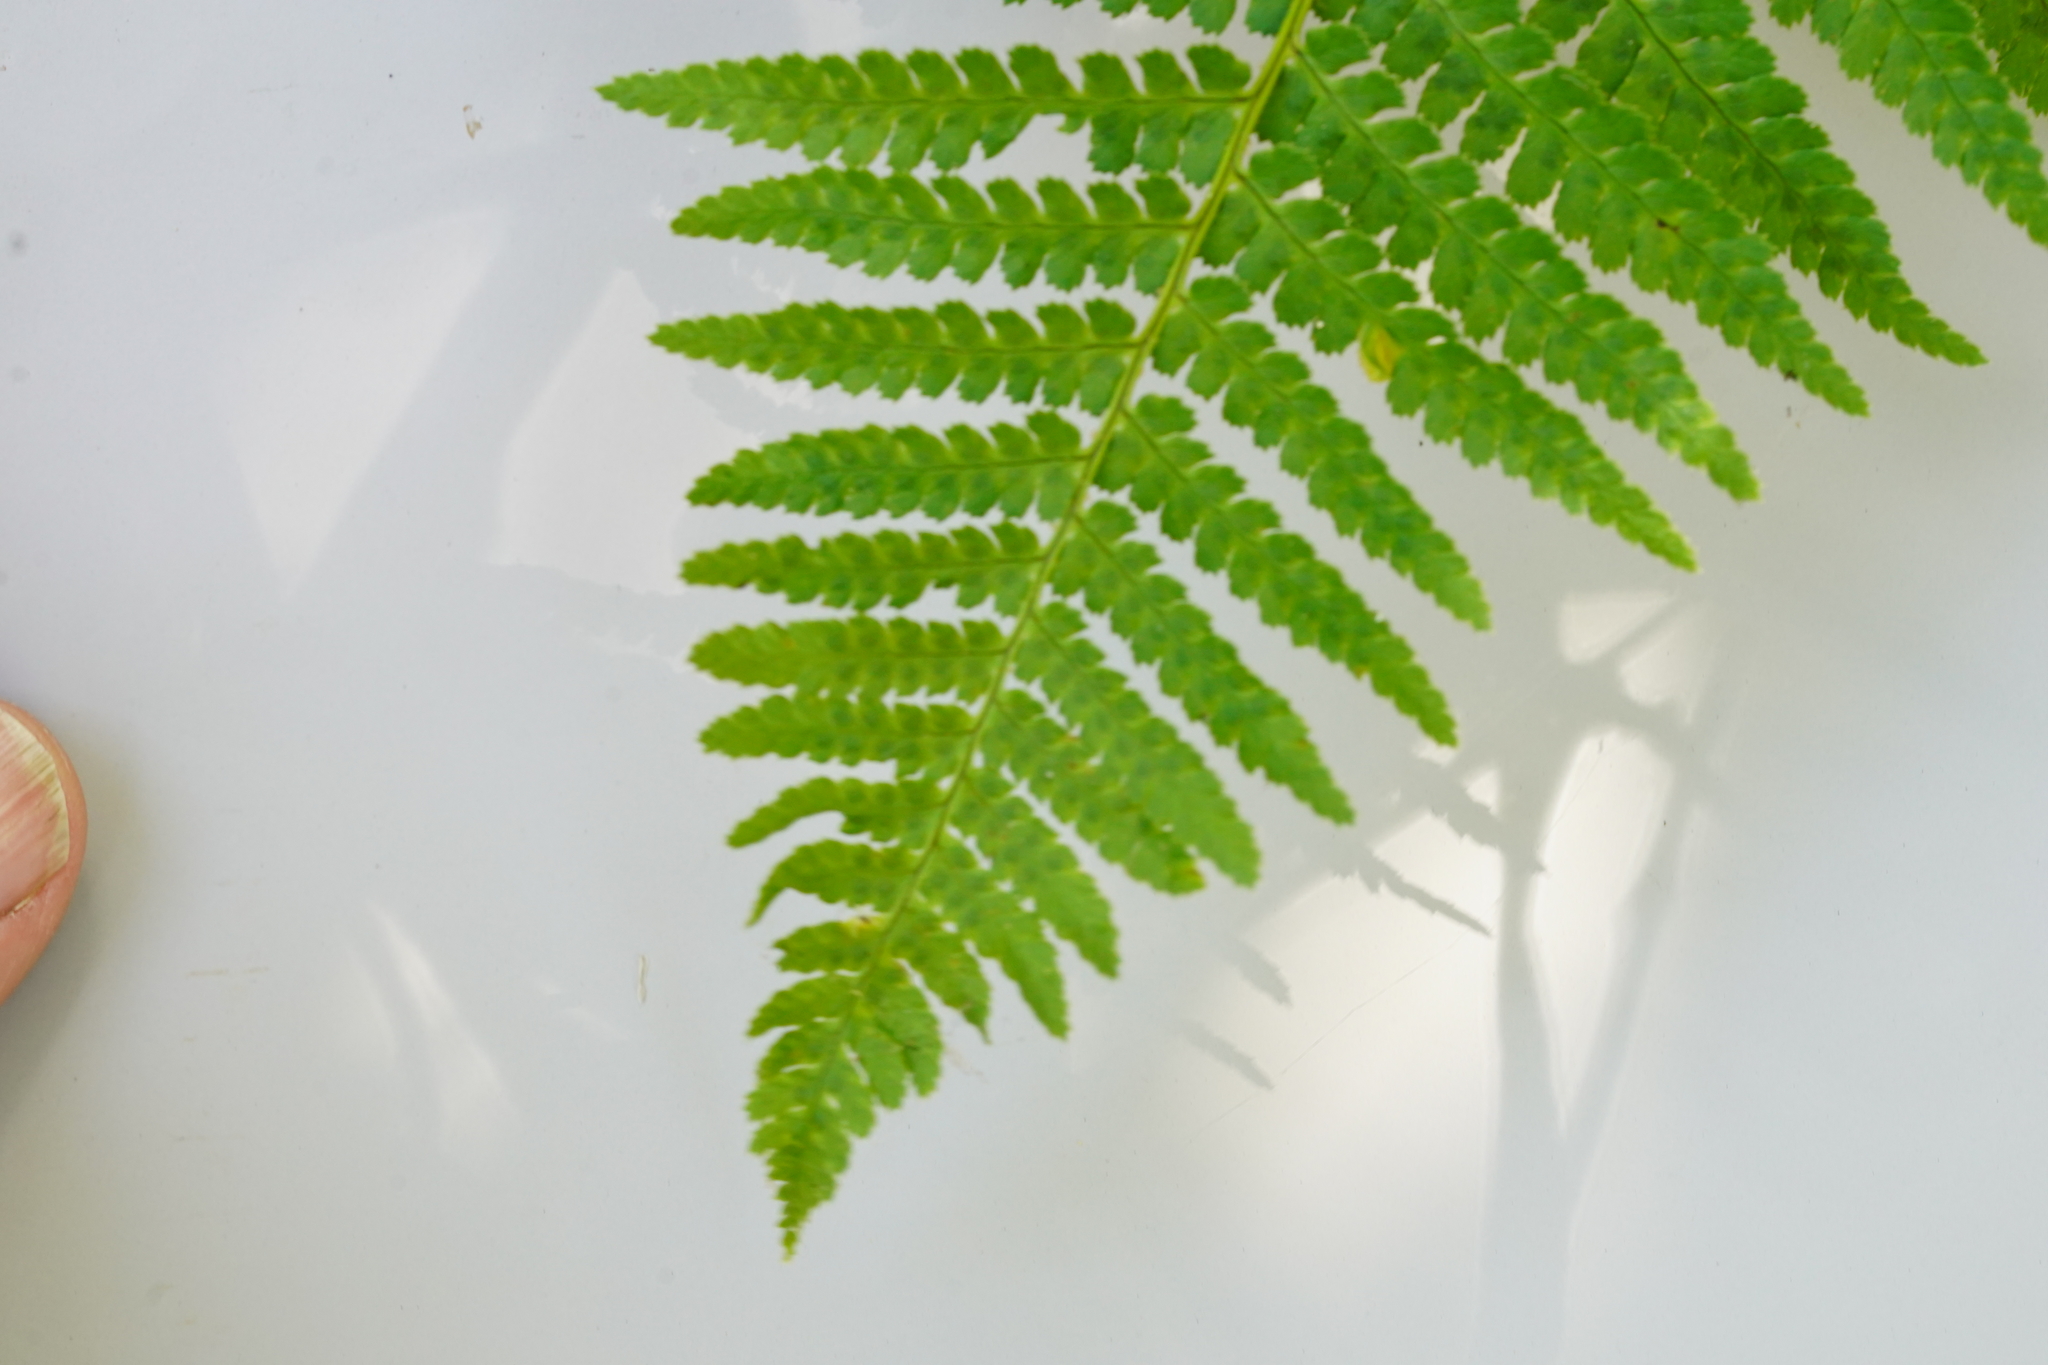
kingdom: Plantae
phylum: Tracheophyta
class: Polypodiopsida
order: Polypodiales
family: Dryopteridaceae
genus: Dryopteris
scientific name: Dryopteris arguta
